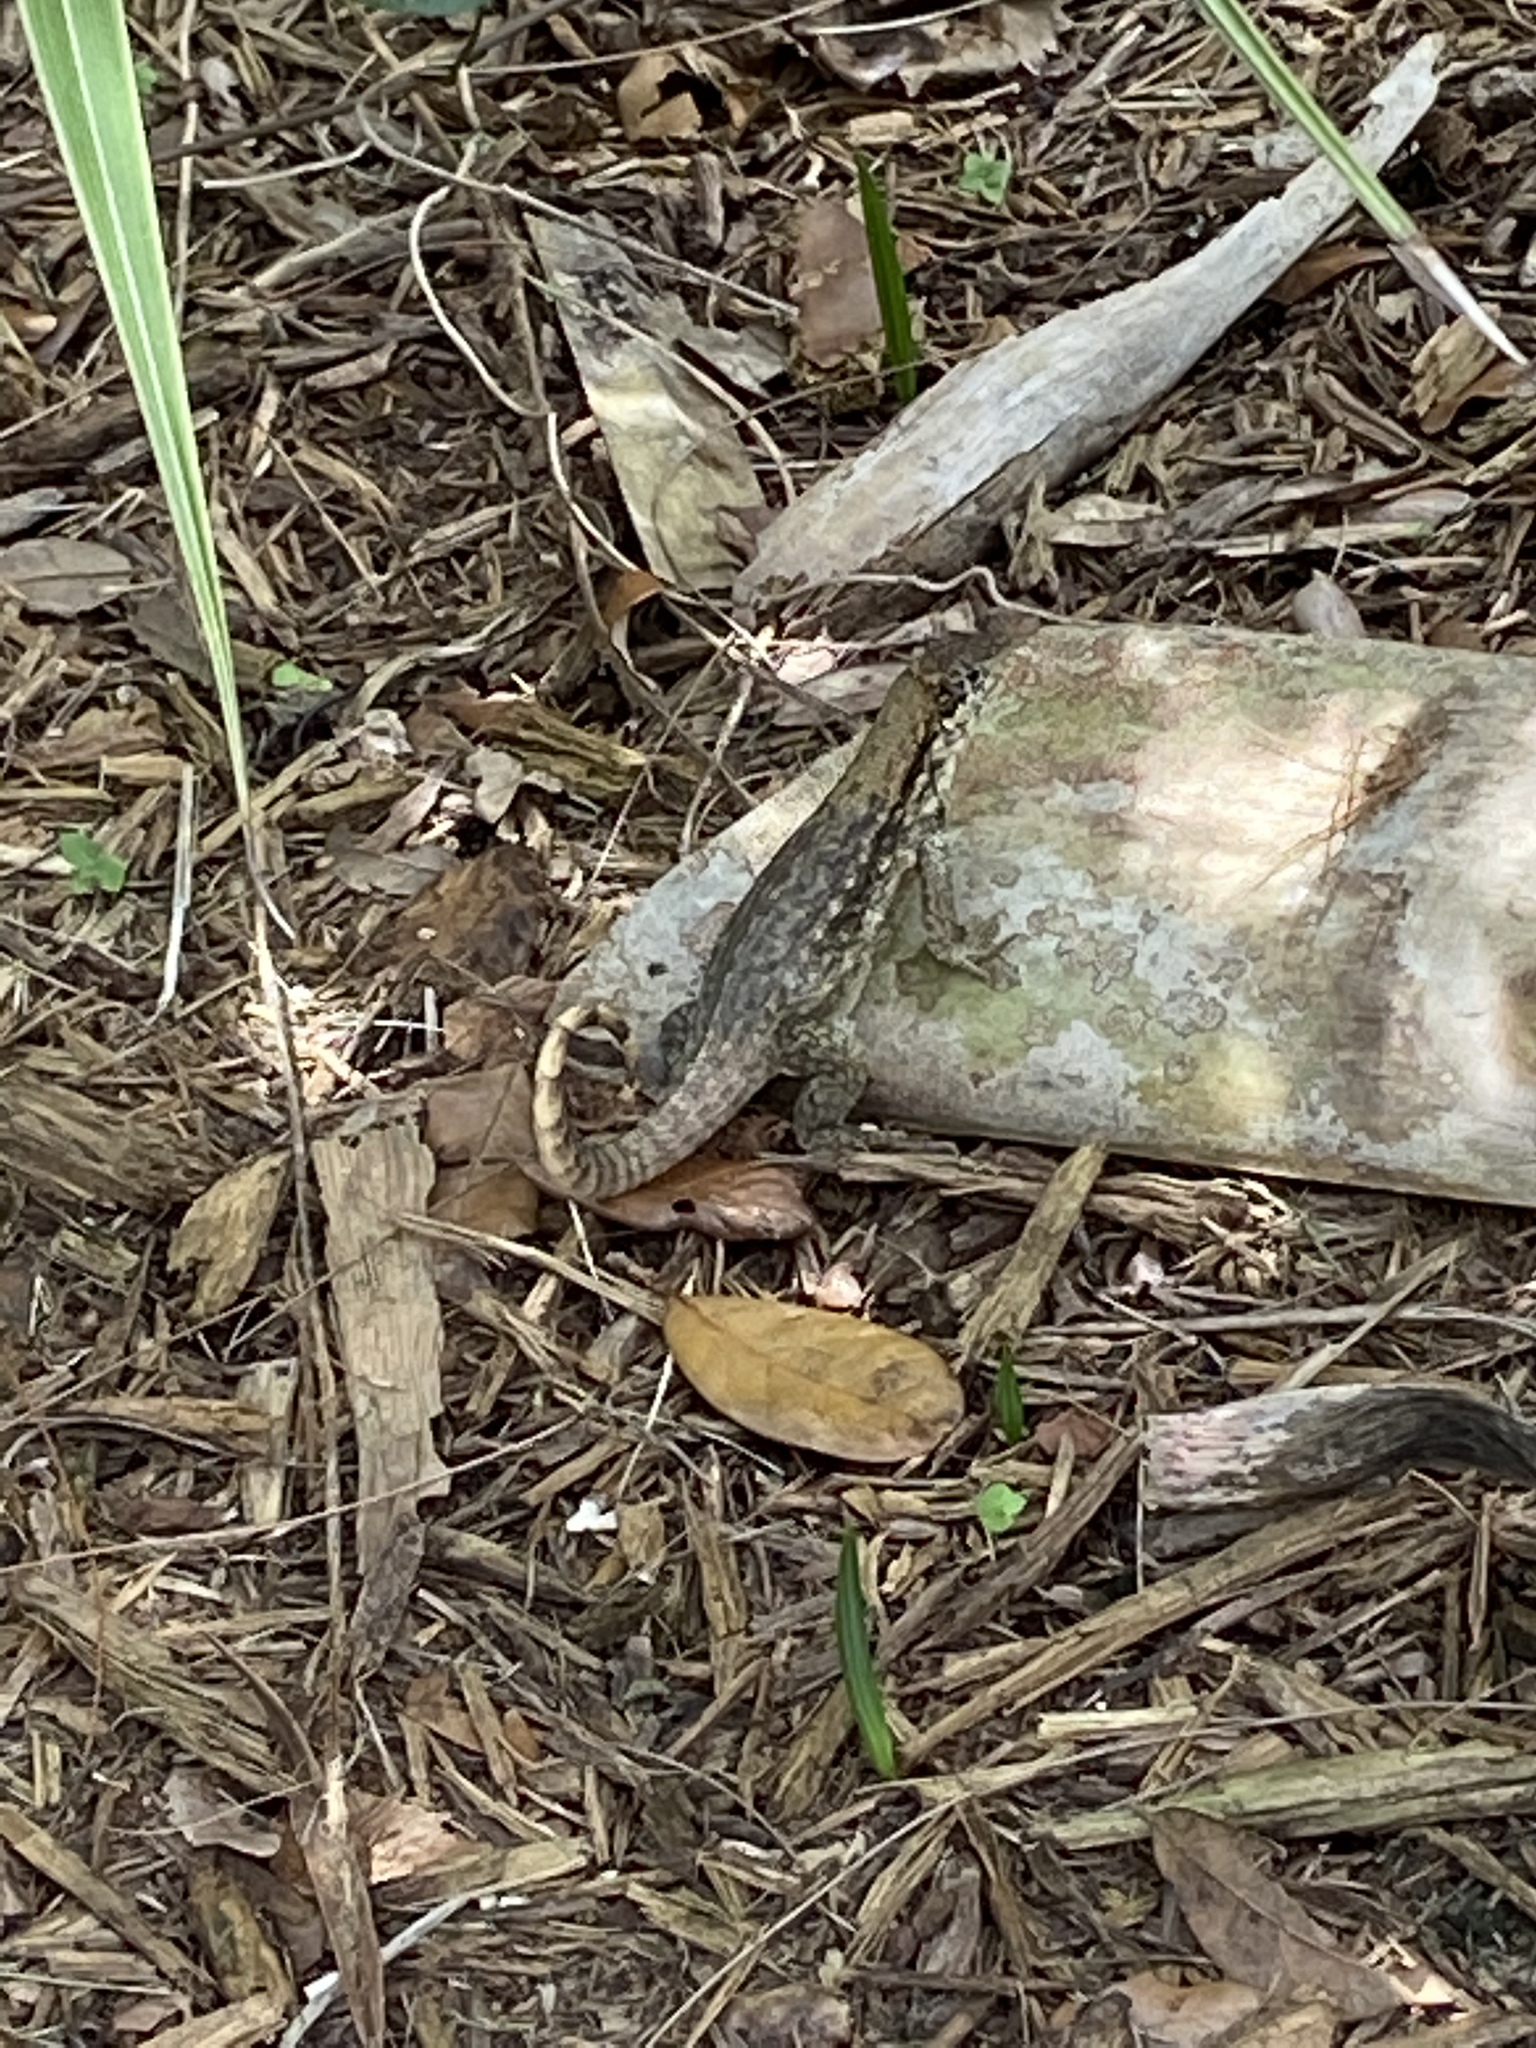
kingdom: Animalia
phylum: Chordata
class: Squamata
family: Leiocephalidae
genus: Leiocephalus
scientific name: Leiocephalus carinatus
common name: Northern curly-tailed lizard
